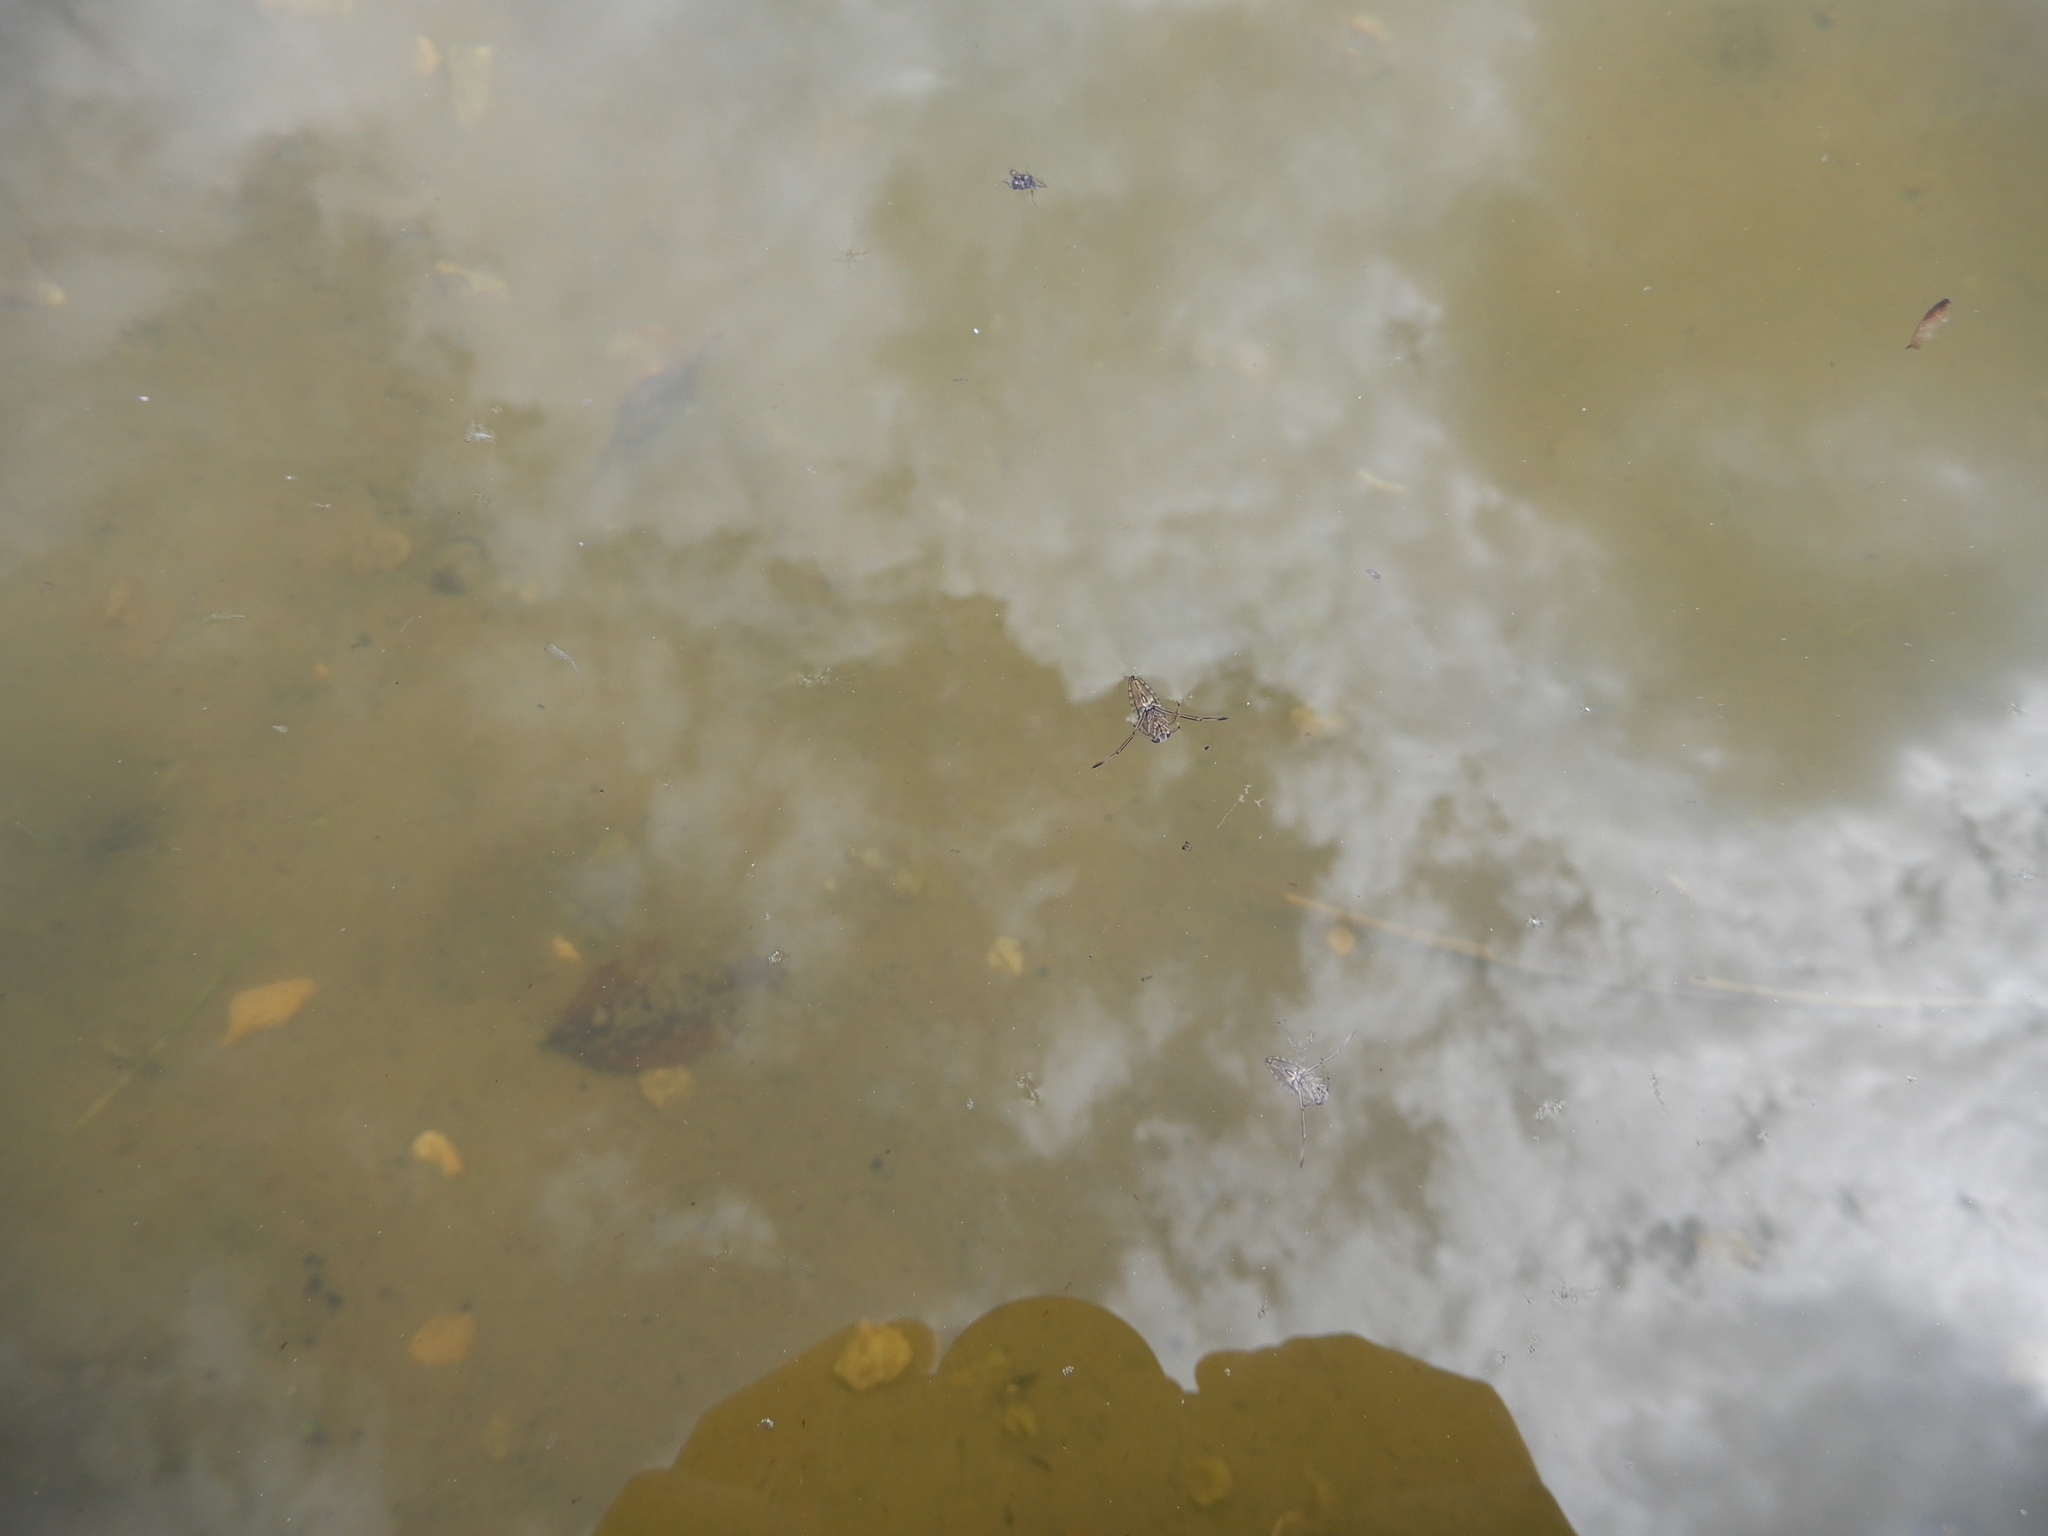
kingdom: Animalia
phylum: Arthropoda
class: Insecta
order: Hemiptera
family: Notonectidae
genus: Notonecta
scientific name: Notonecta
